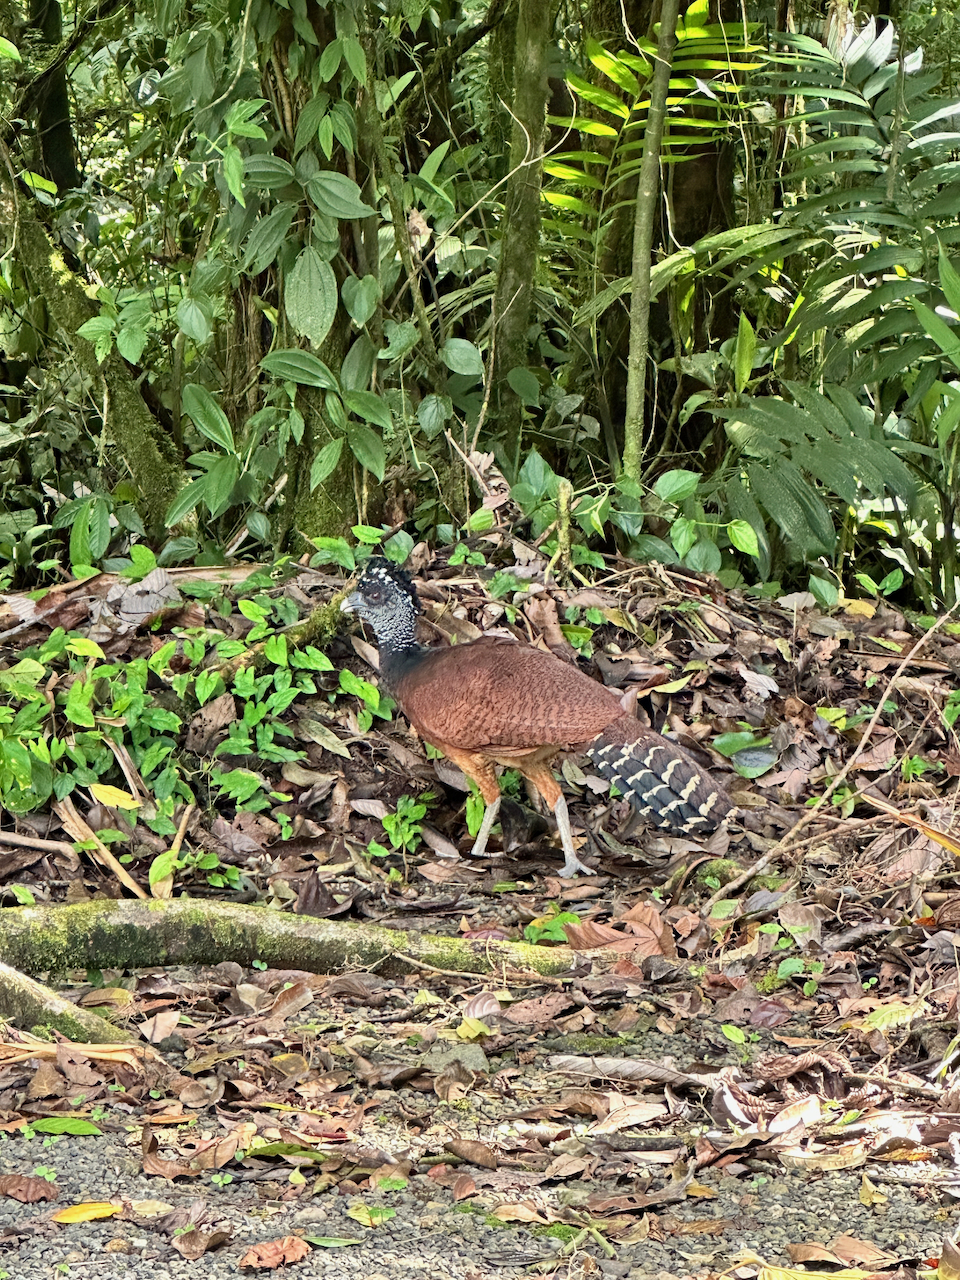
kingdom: Animalia
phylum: Chordata
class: Aves
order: Galliformes
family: Cracidae
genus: Crax
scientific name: Crax rubra
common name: Great curassow
